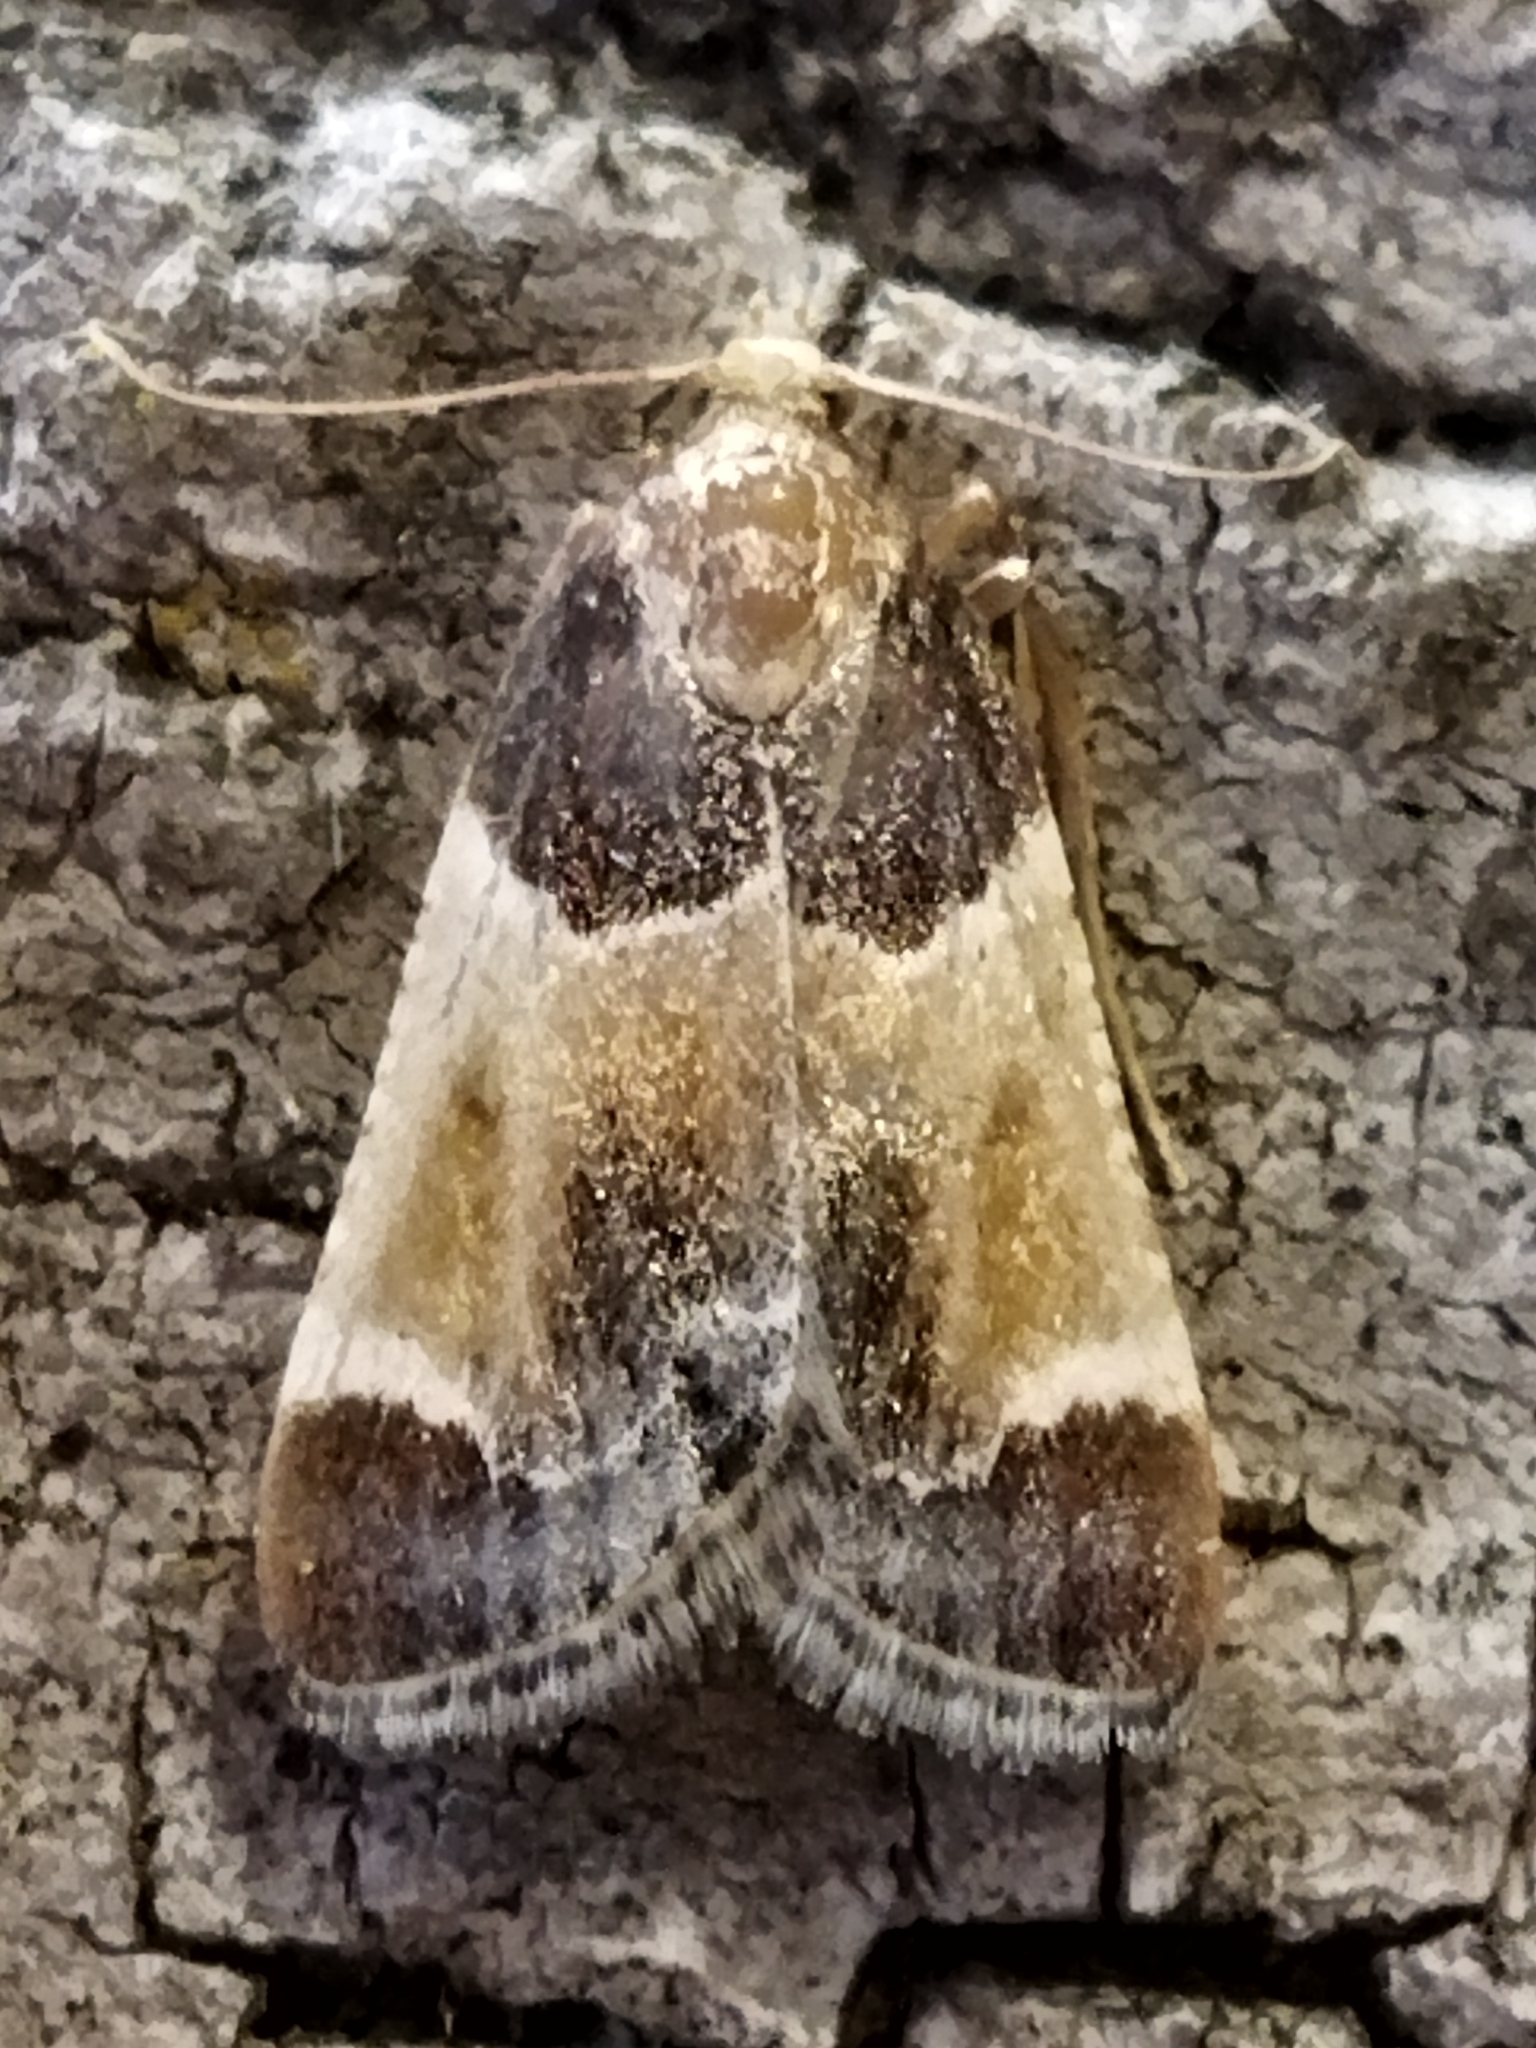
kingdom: Animalia
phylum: Arthropoda
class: Insecta
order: Lepidoptera
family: Pyralidae
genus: Pyralis
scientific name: Pyralis farinalis
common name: Meal moth
